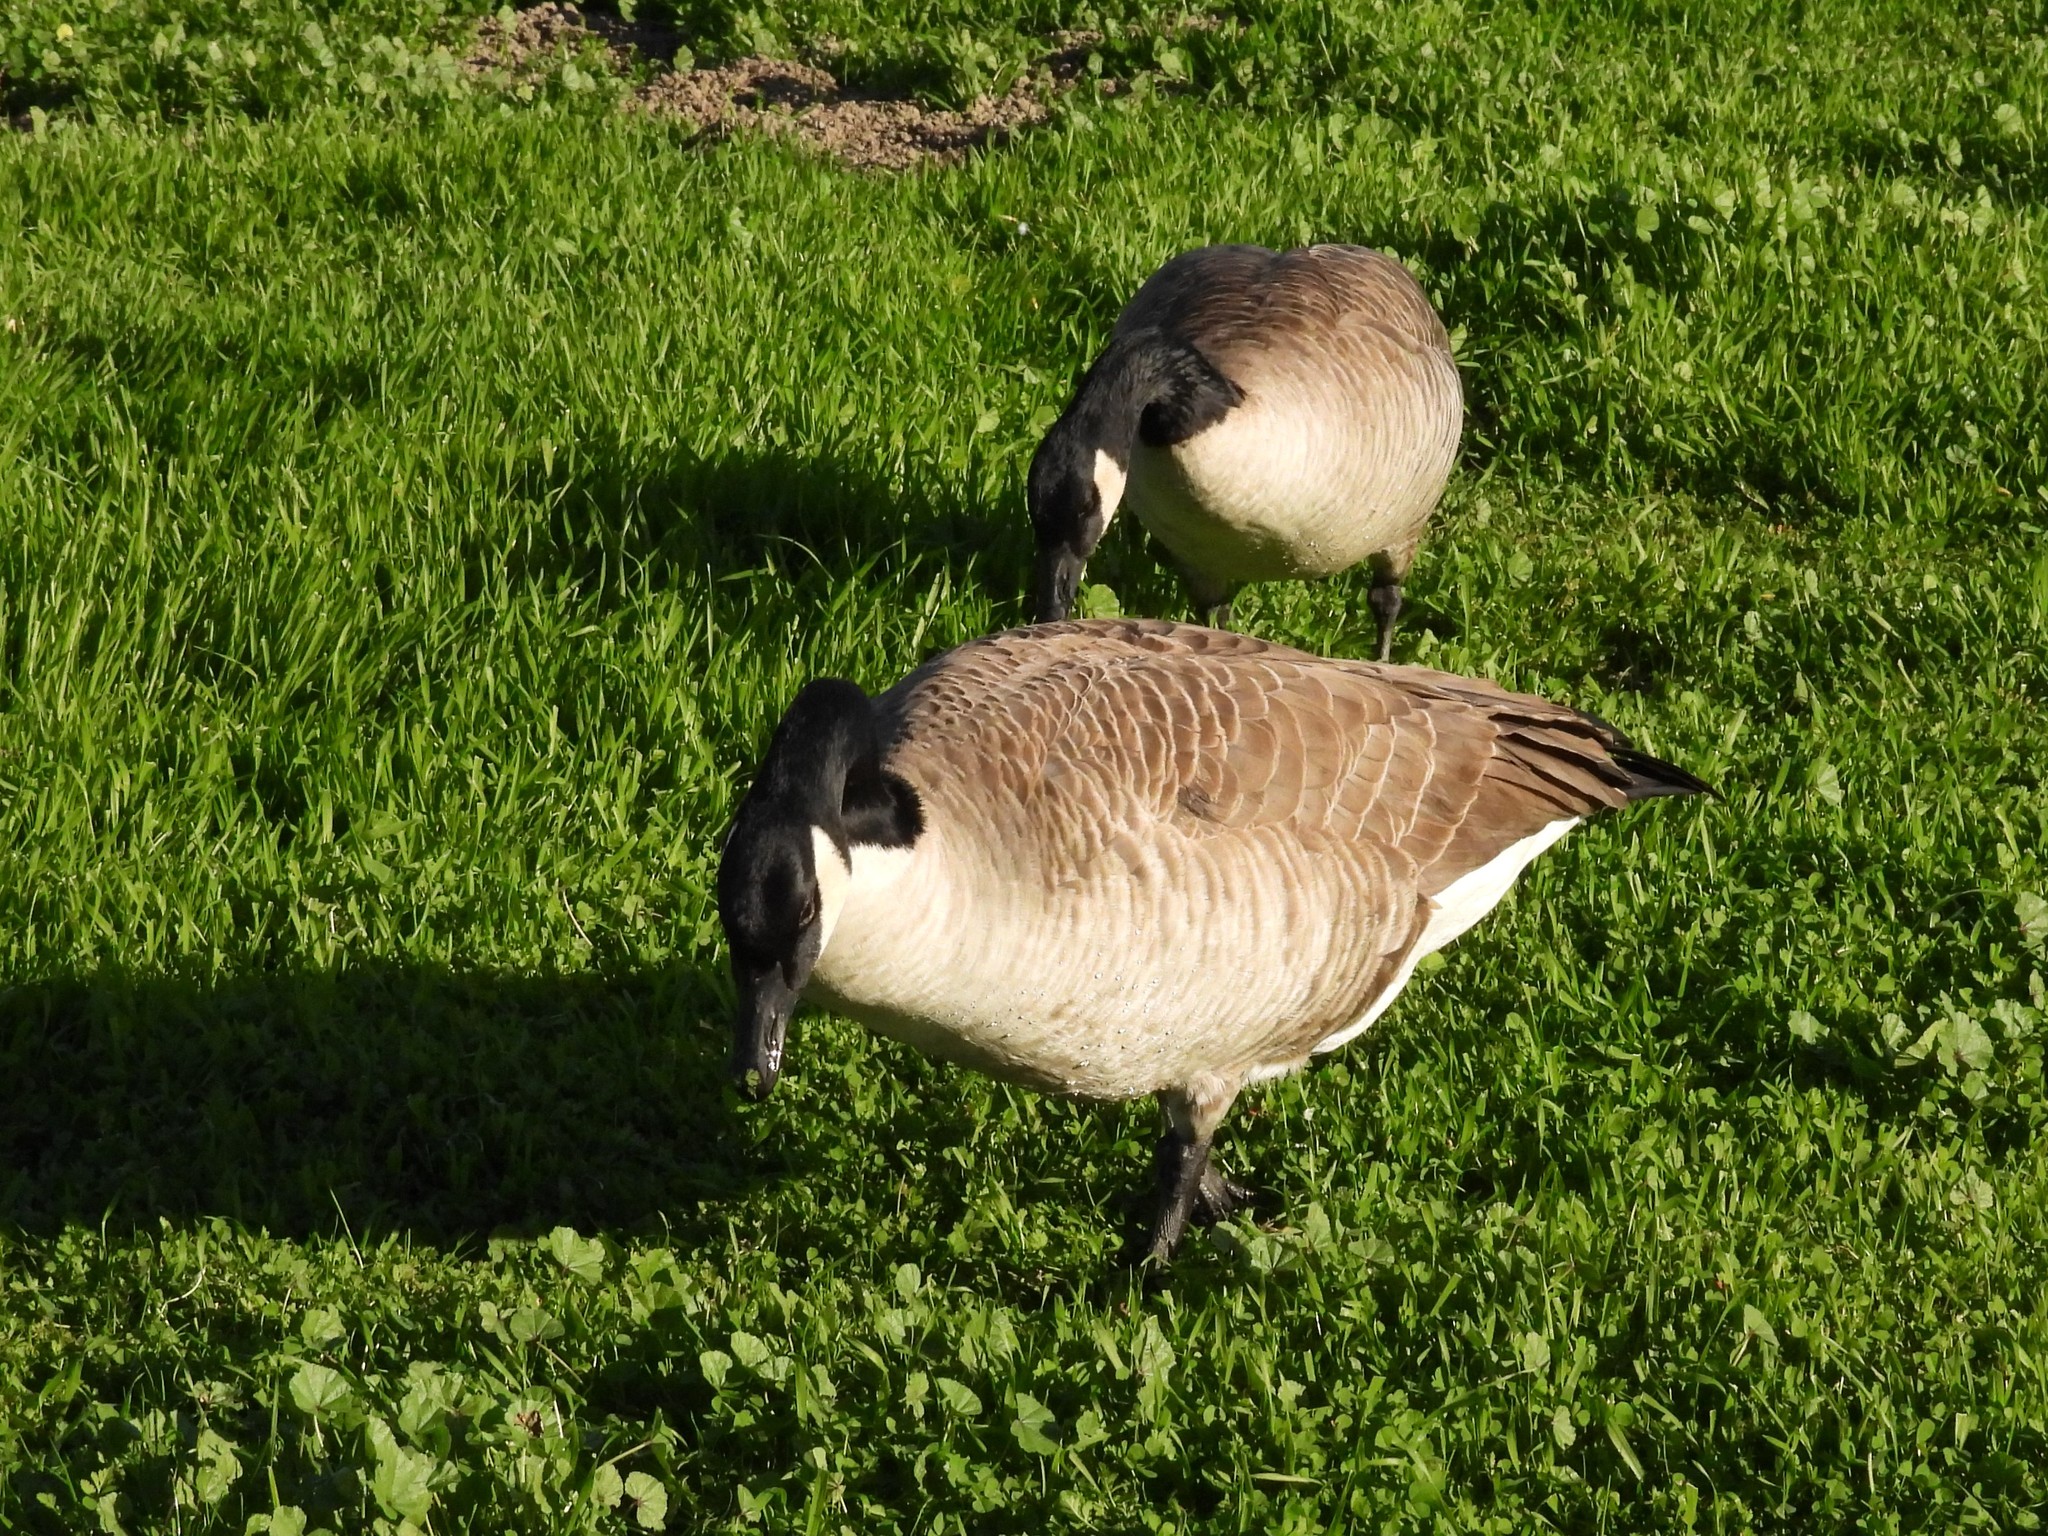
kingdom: Animalia
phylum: Chordata
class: Aves
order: Anseriformes
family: Anatidae
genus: Branta
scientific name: Branta canadensis
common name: Canada goose
